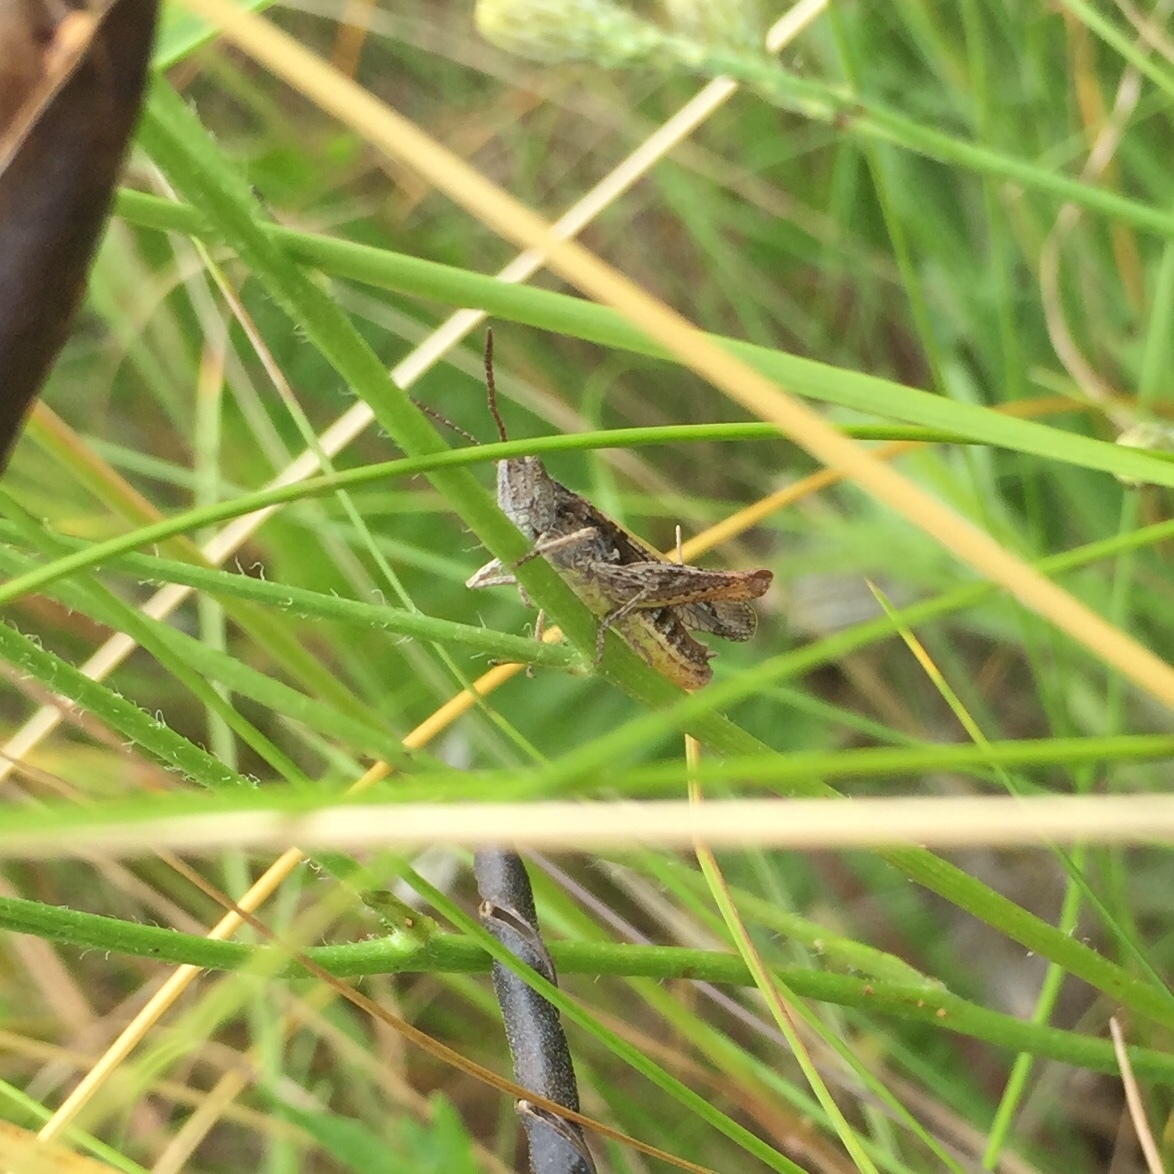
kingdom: Animalia
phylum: Arthropoda
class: Insecta
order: Orthoptera
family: Acrididae
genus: Chorthippus
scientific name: Chorthippus brunneus
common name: Field grasshopper
